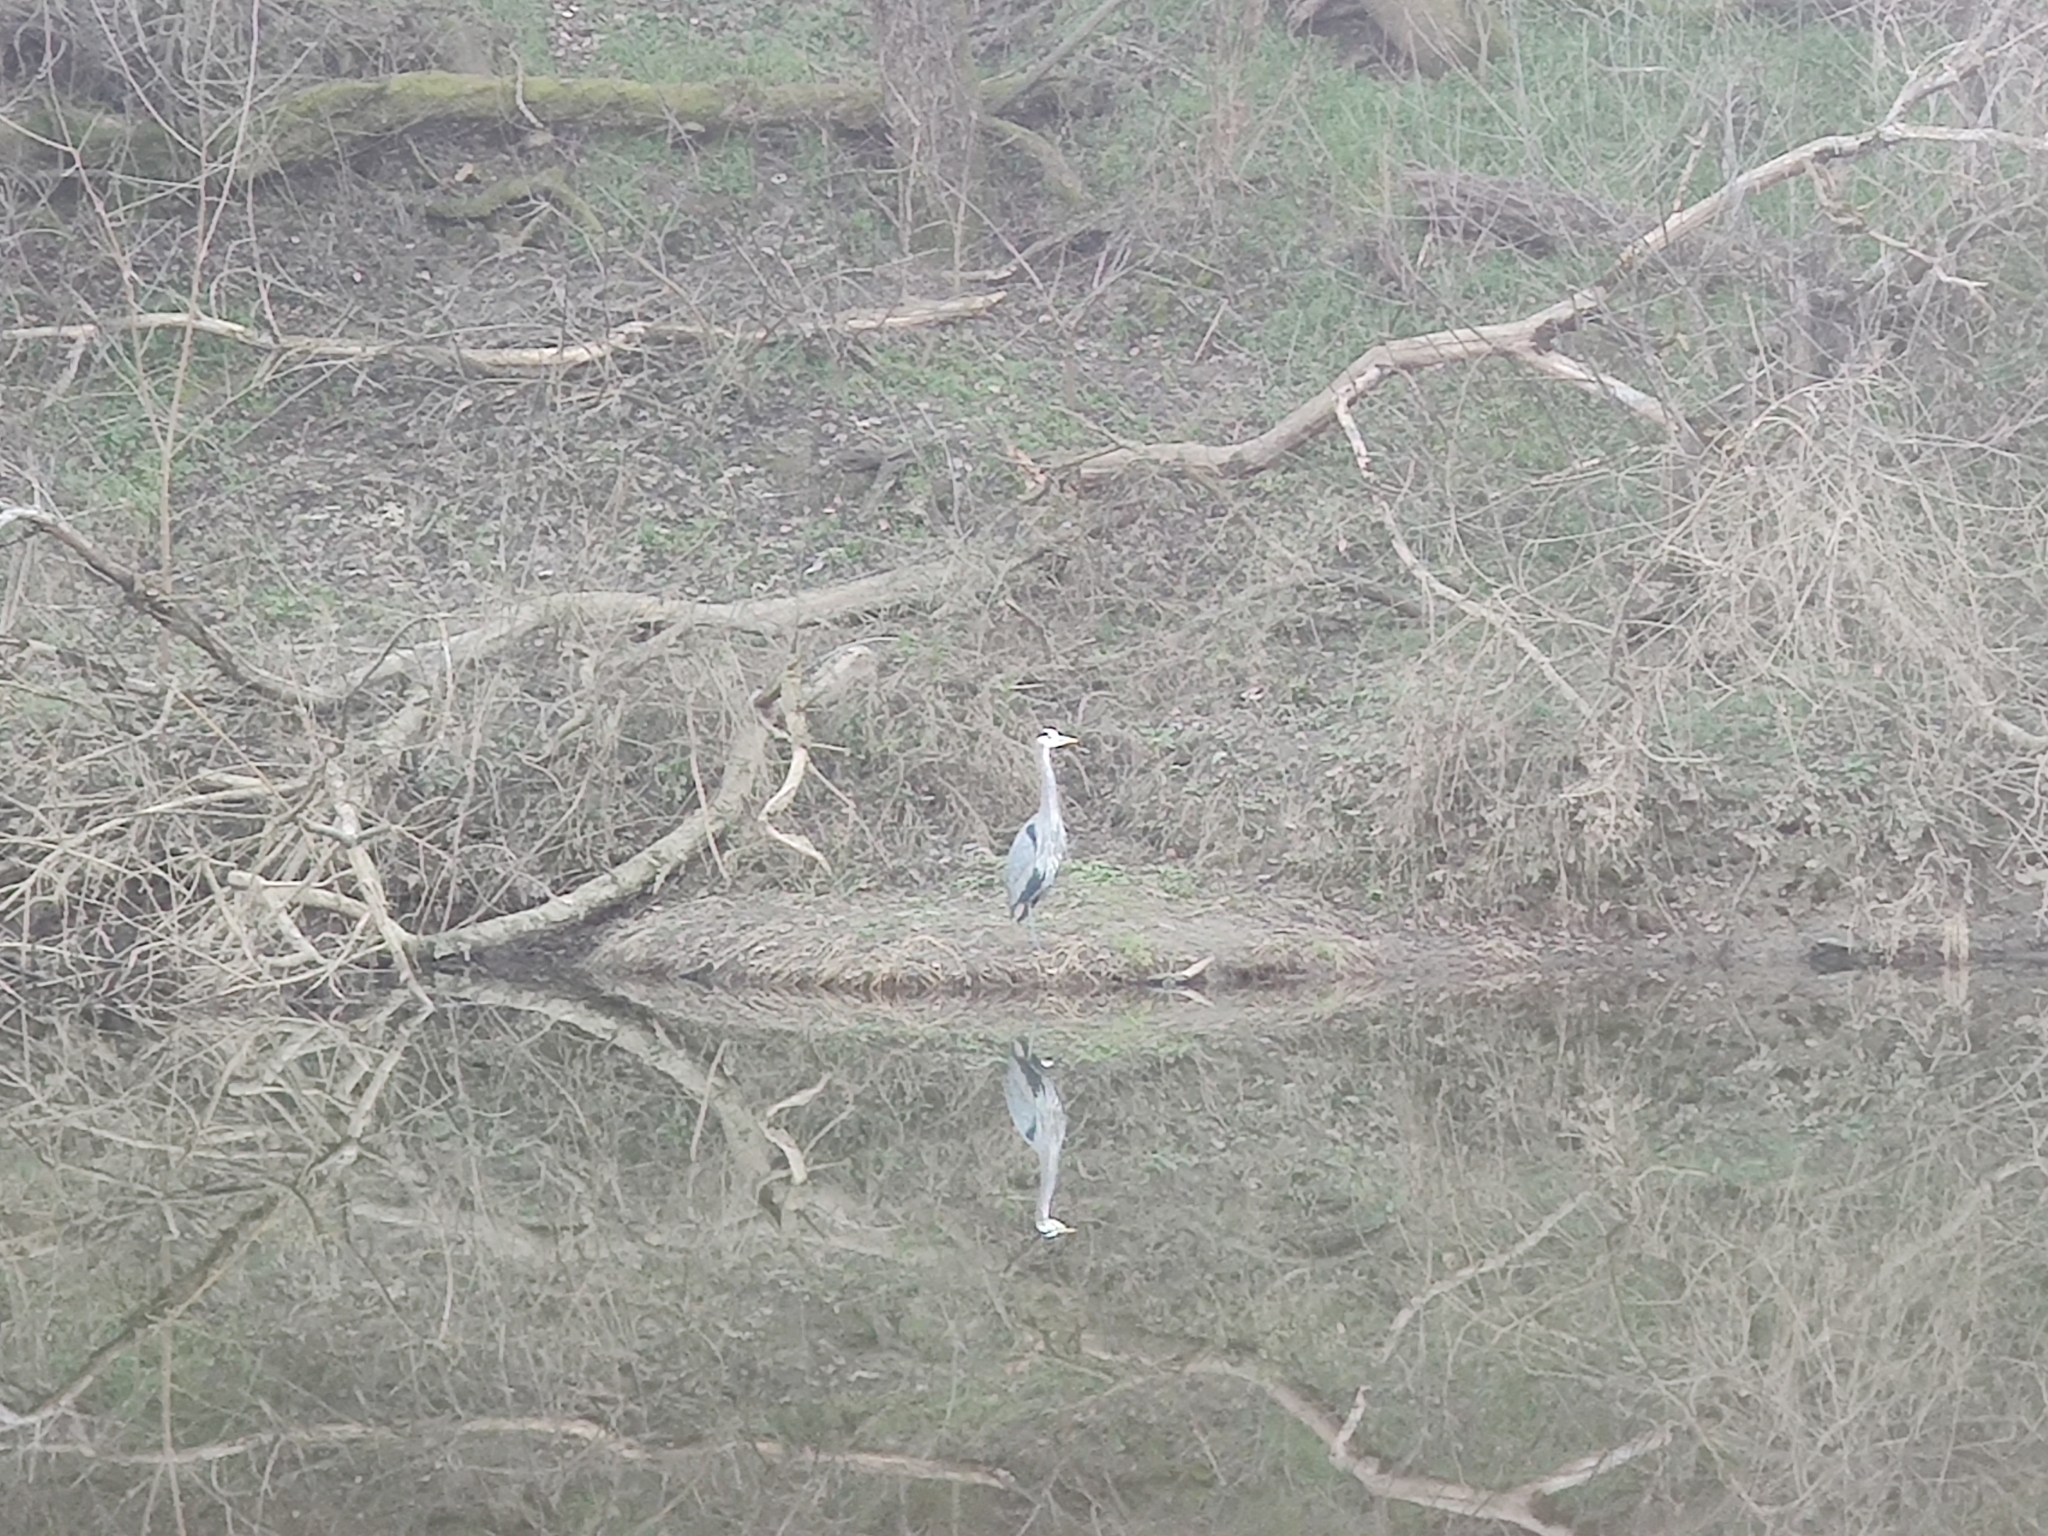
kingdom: Animalia
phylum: Chordata
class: Aves
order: Pelecaniformes
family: Ardeidae
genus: Ardea
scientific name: Ardea herodias
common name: Great blue heron
